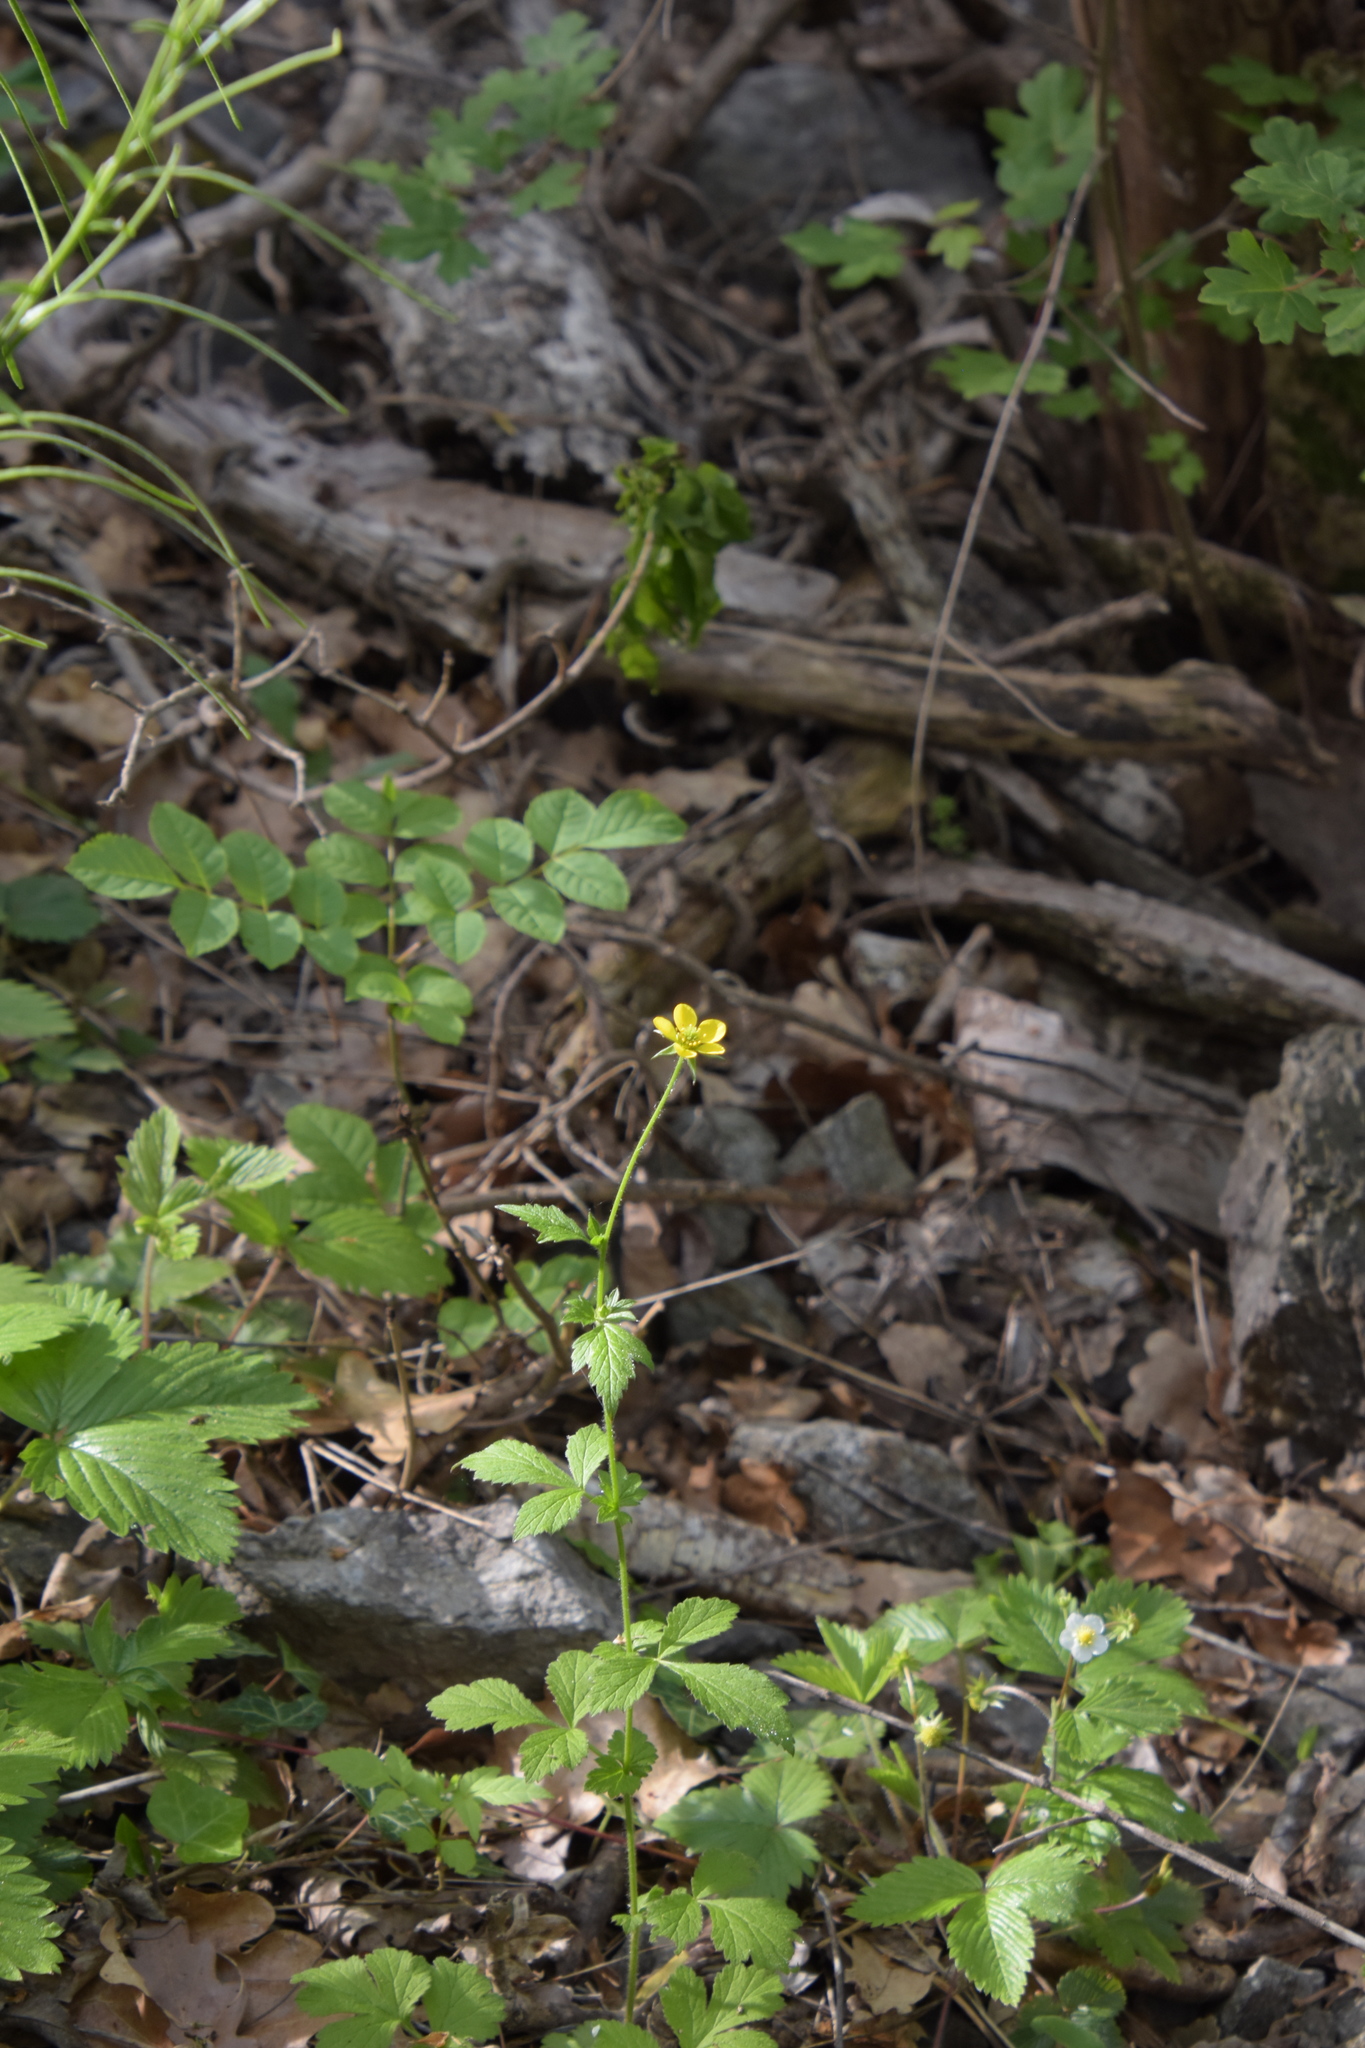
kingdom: Plantae
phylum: Tracheophyta
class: Magnoliopsida
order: Rosales
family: Rosaceae
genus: Geum
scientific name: Geum urbanum
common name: Wood avens
